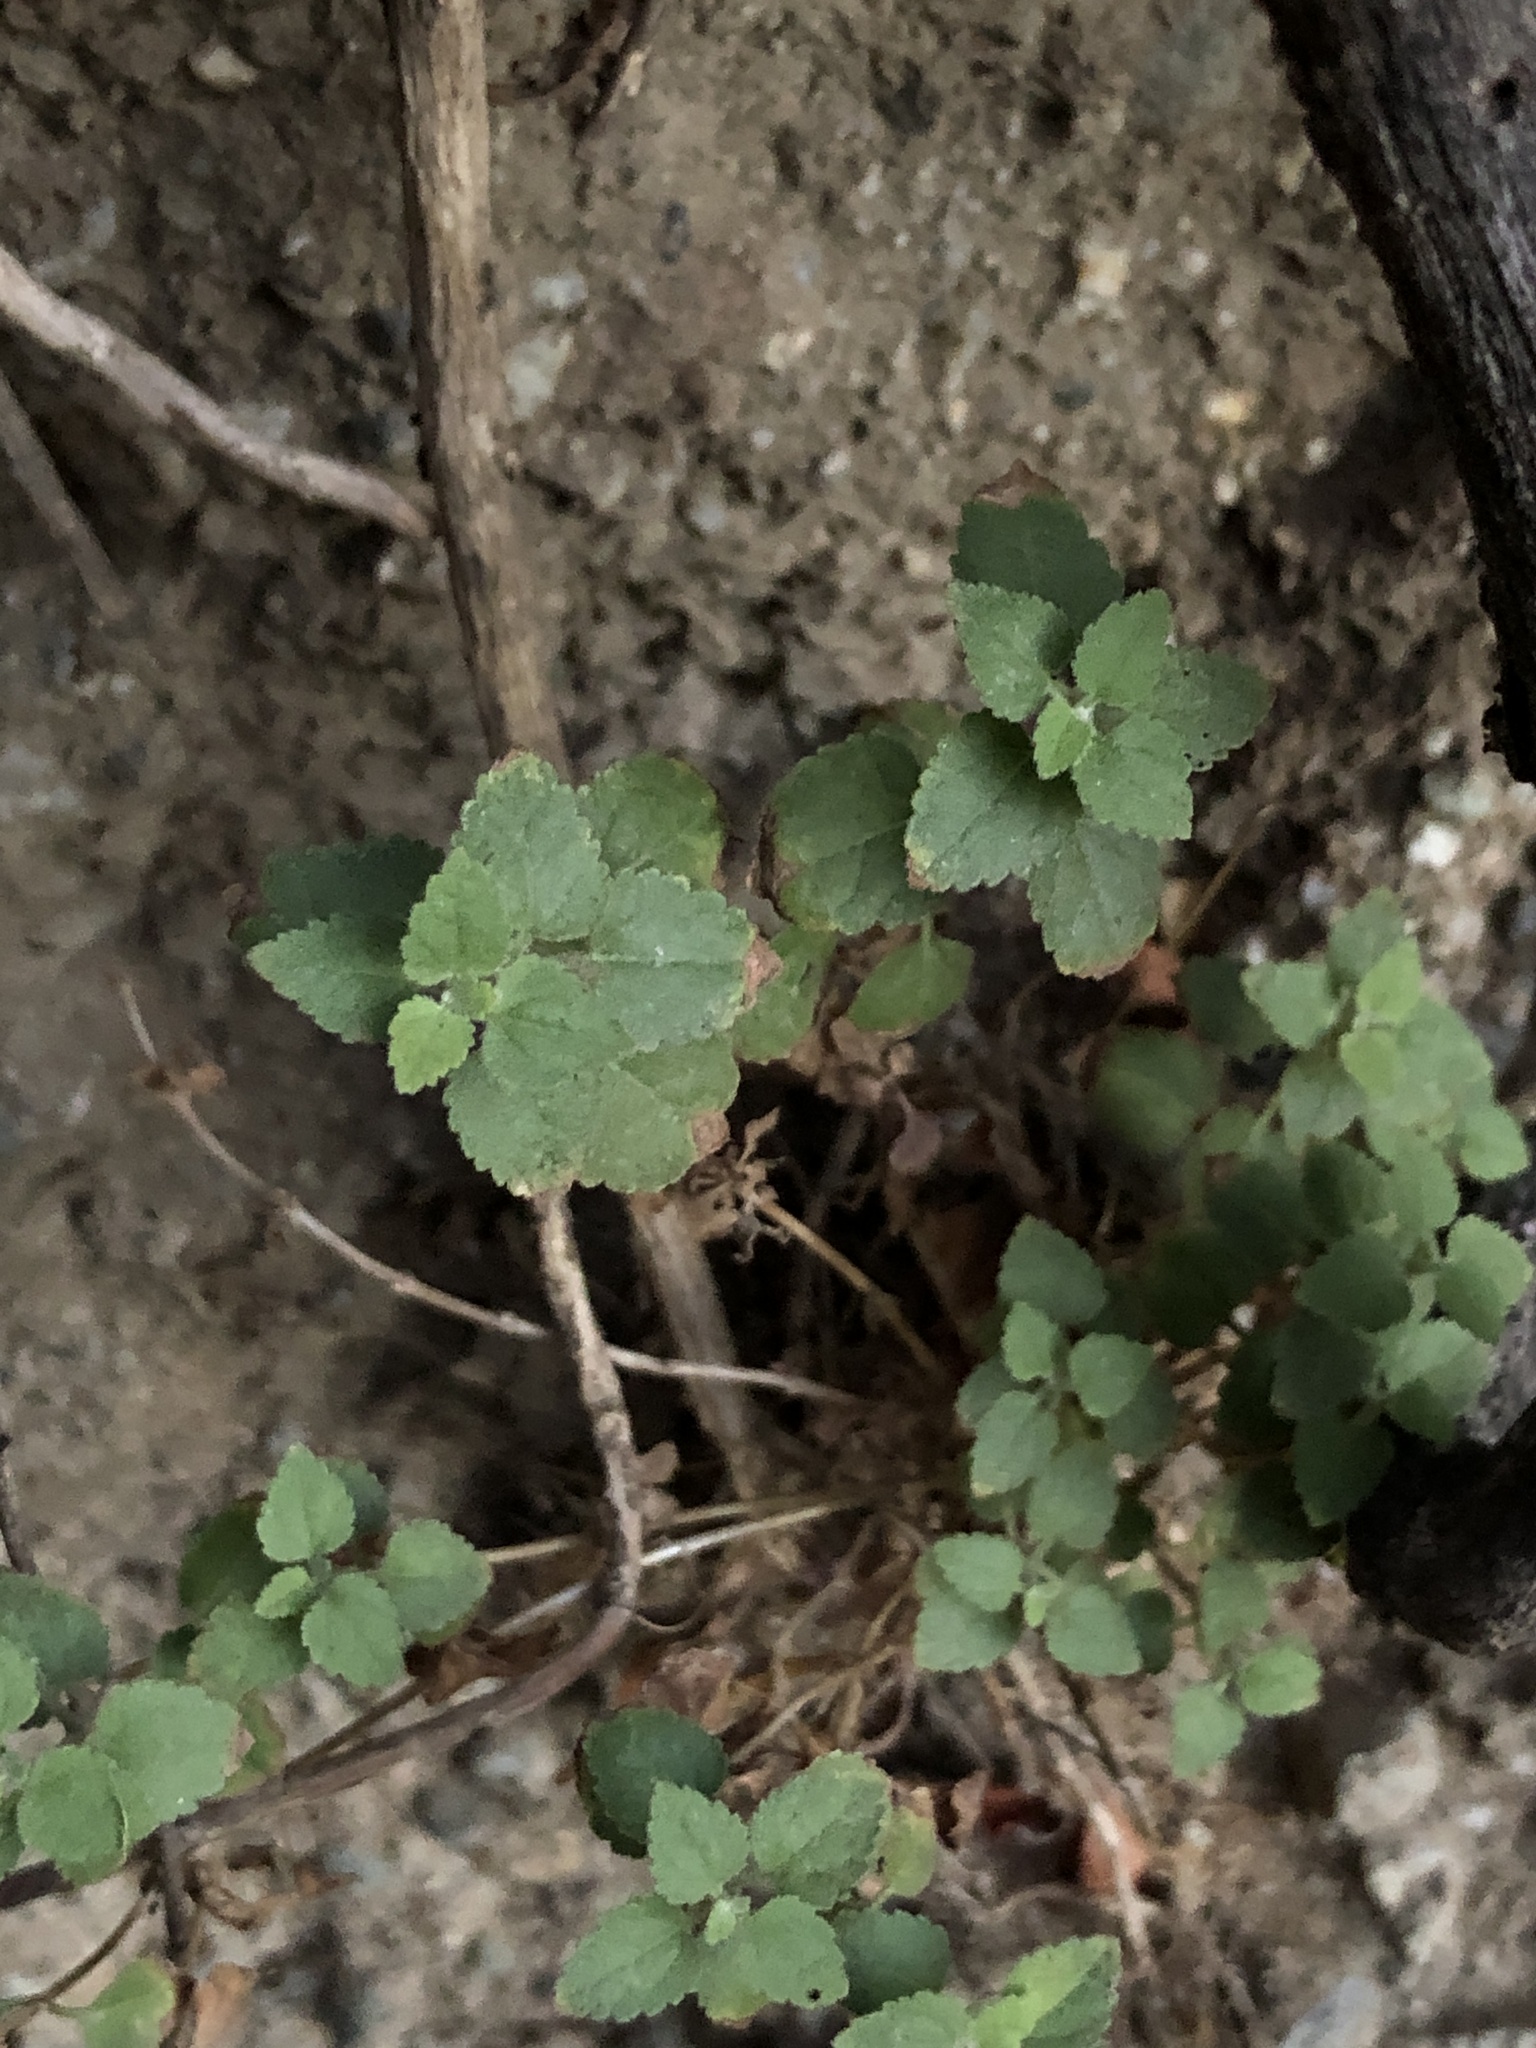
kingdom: Plantae
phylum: Tracheophyta
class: Magnoliopsida
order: Asterales
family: Asteraceae
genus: Brickellia
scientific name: Brickellia californica
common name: California brickellbush
